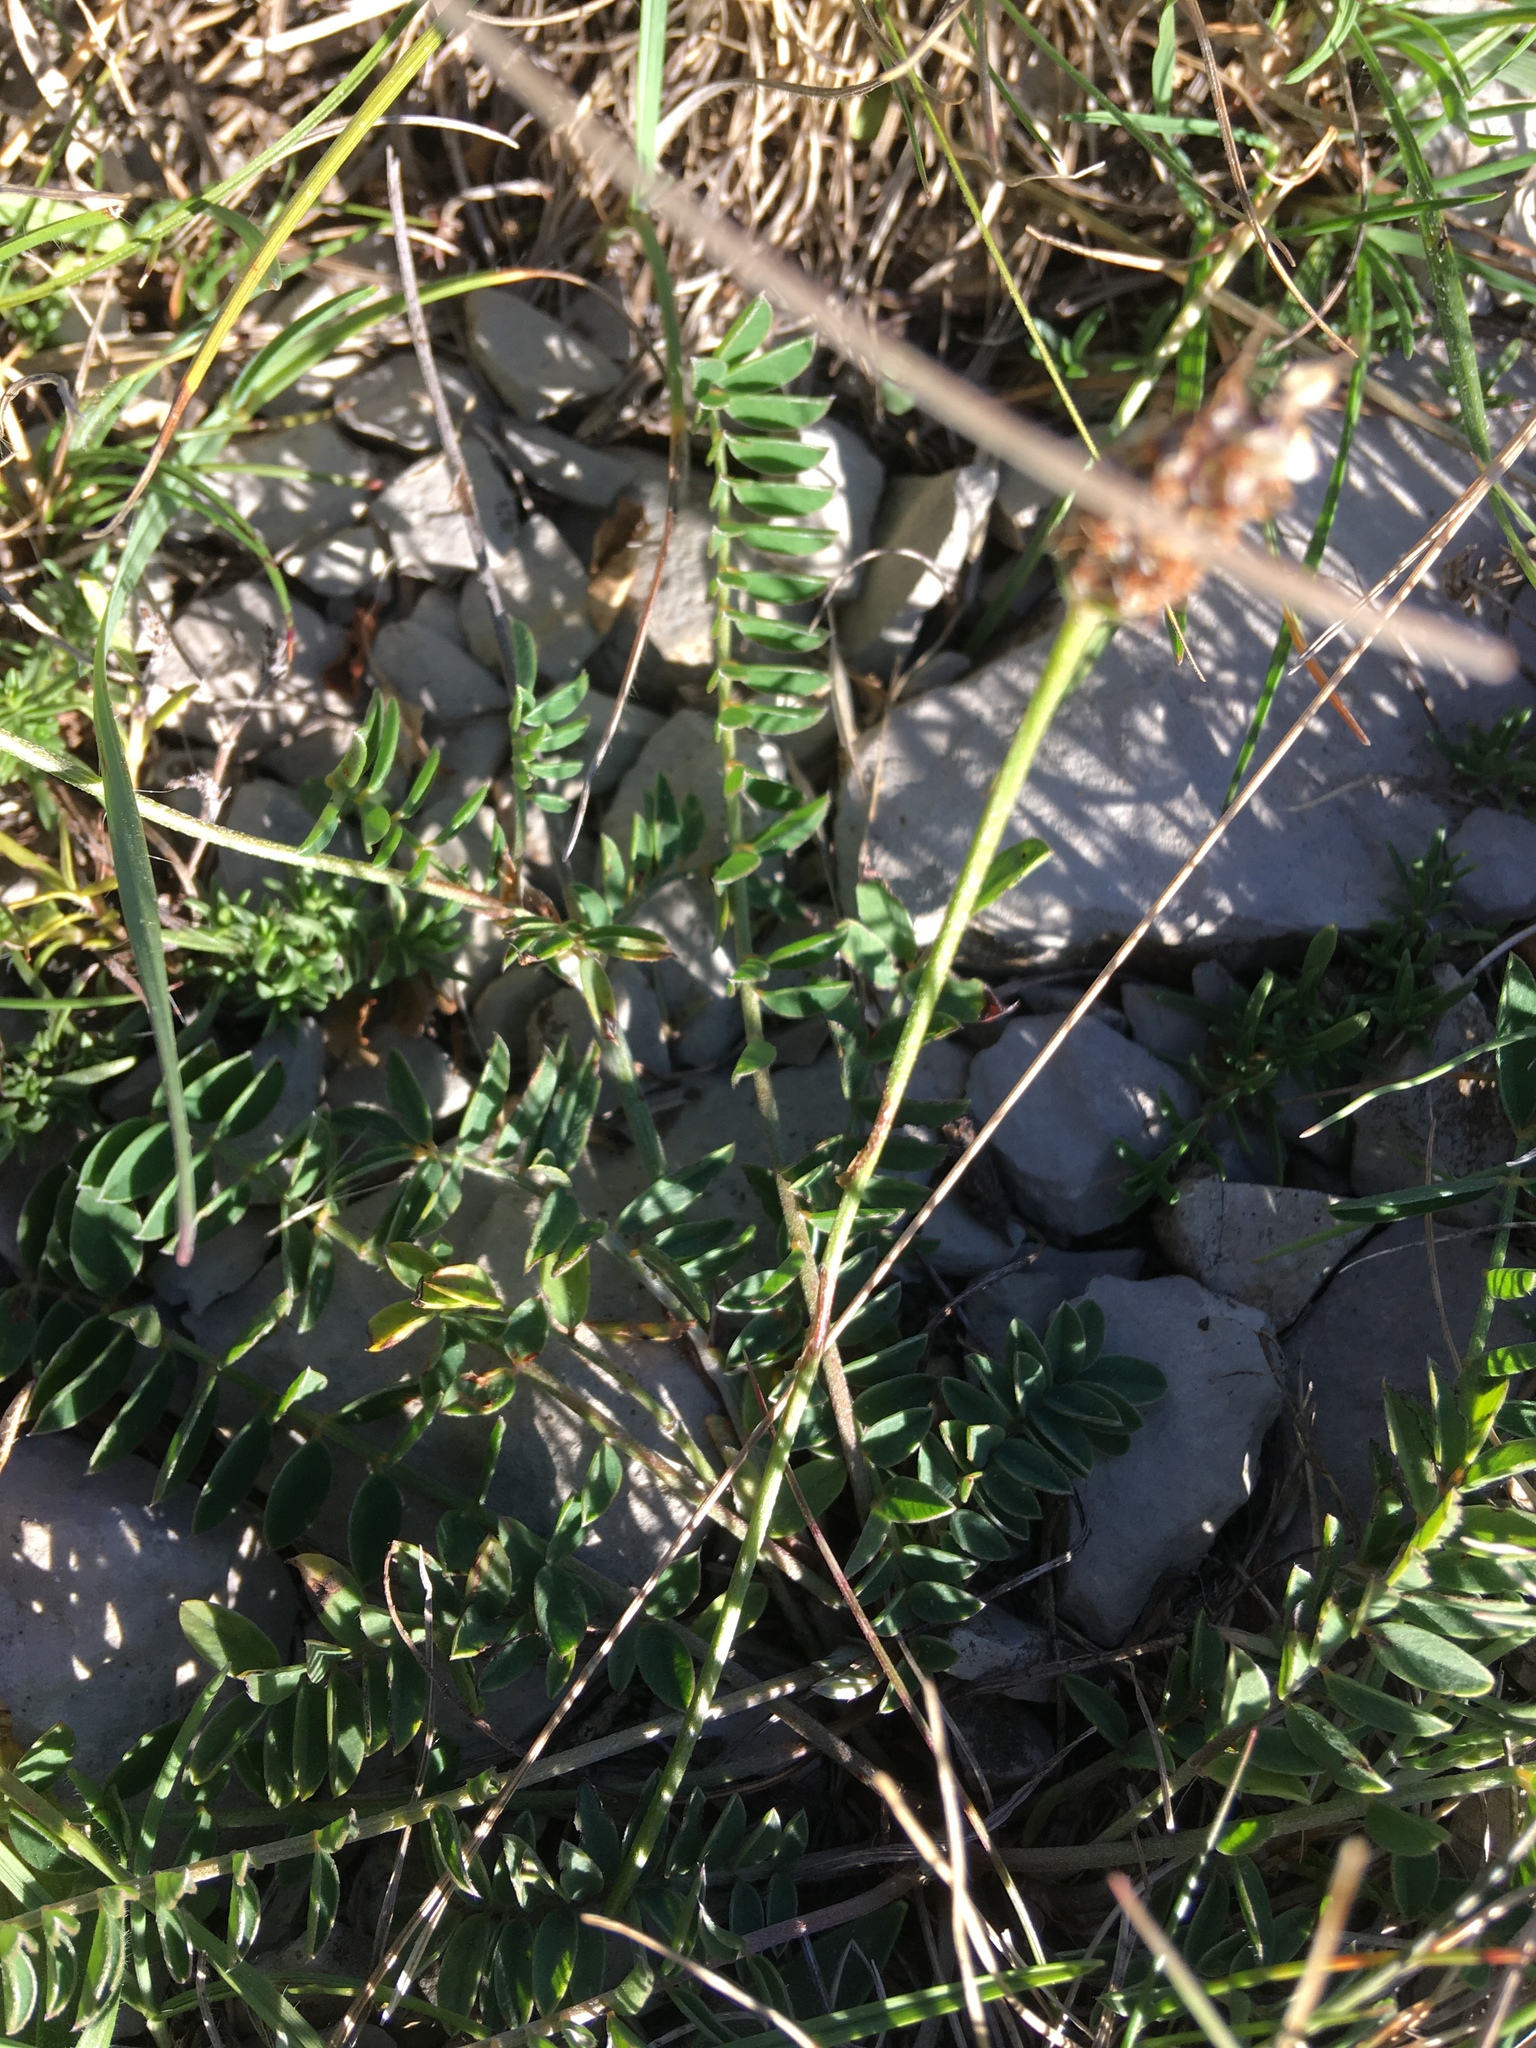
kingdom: Plantae
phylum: Tracheophyta
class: Magnoliopsida
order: Fabales
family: Fabaceae
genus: Onobrychis
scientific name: Onobrychis jailae
